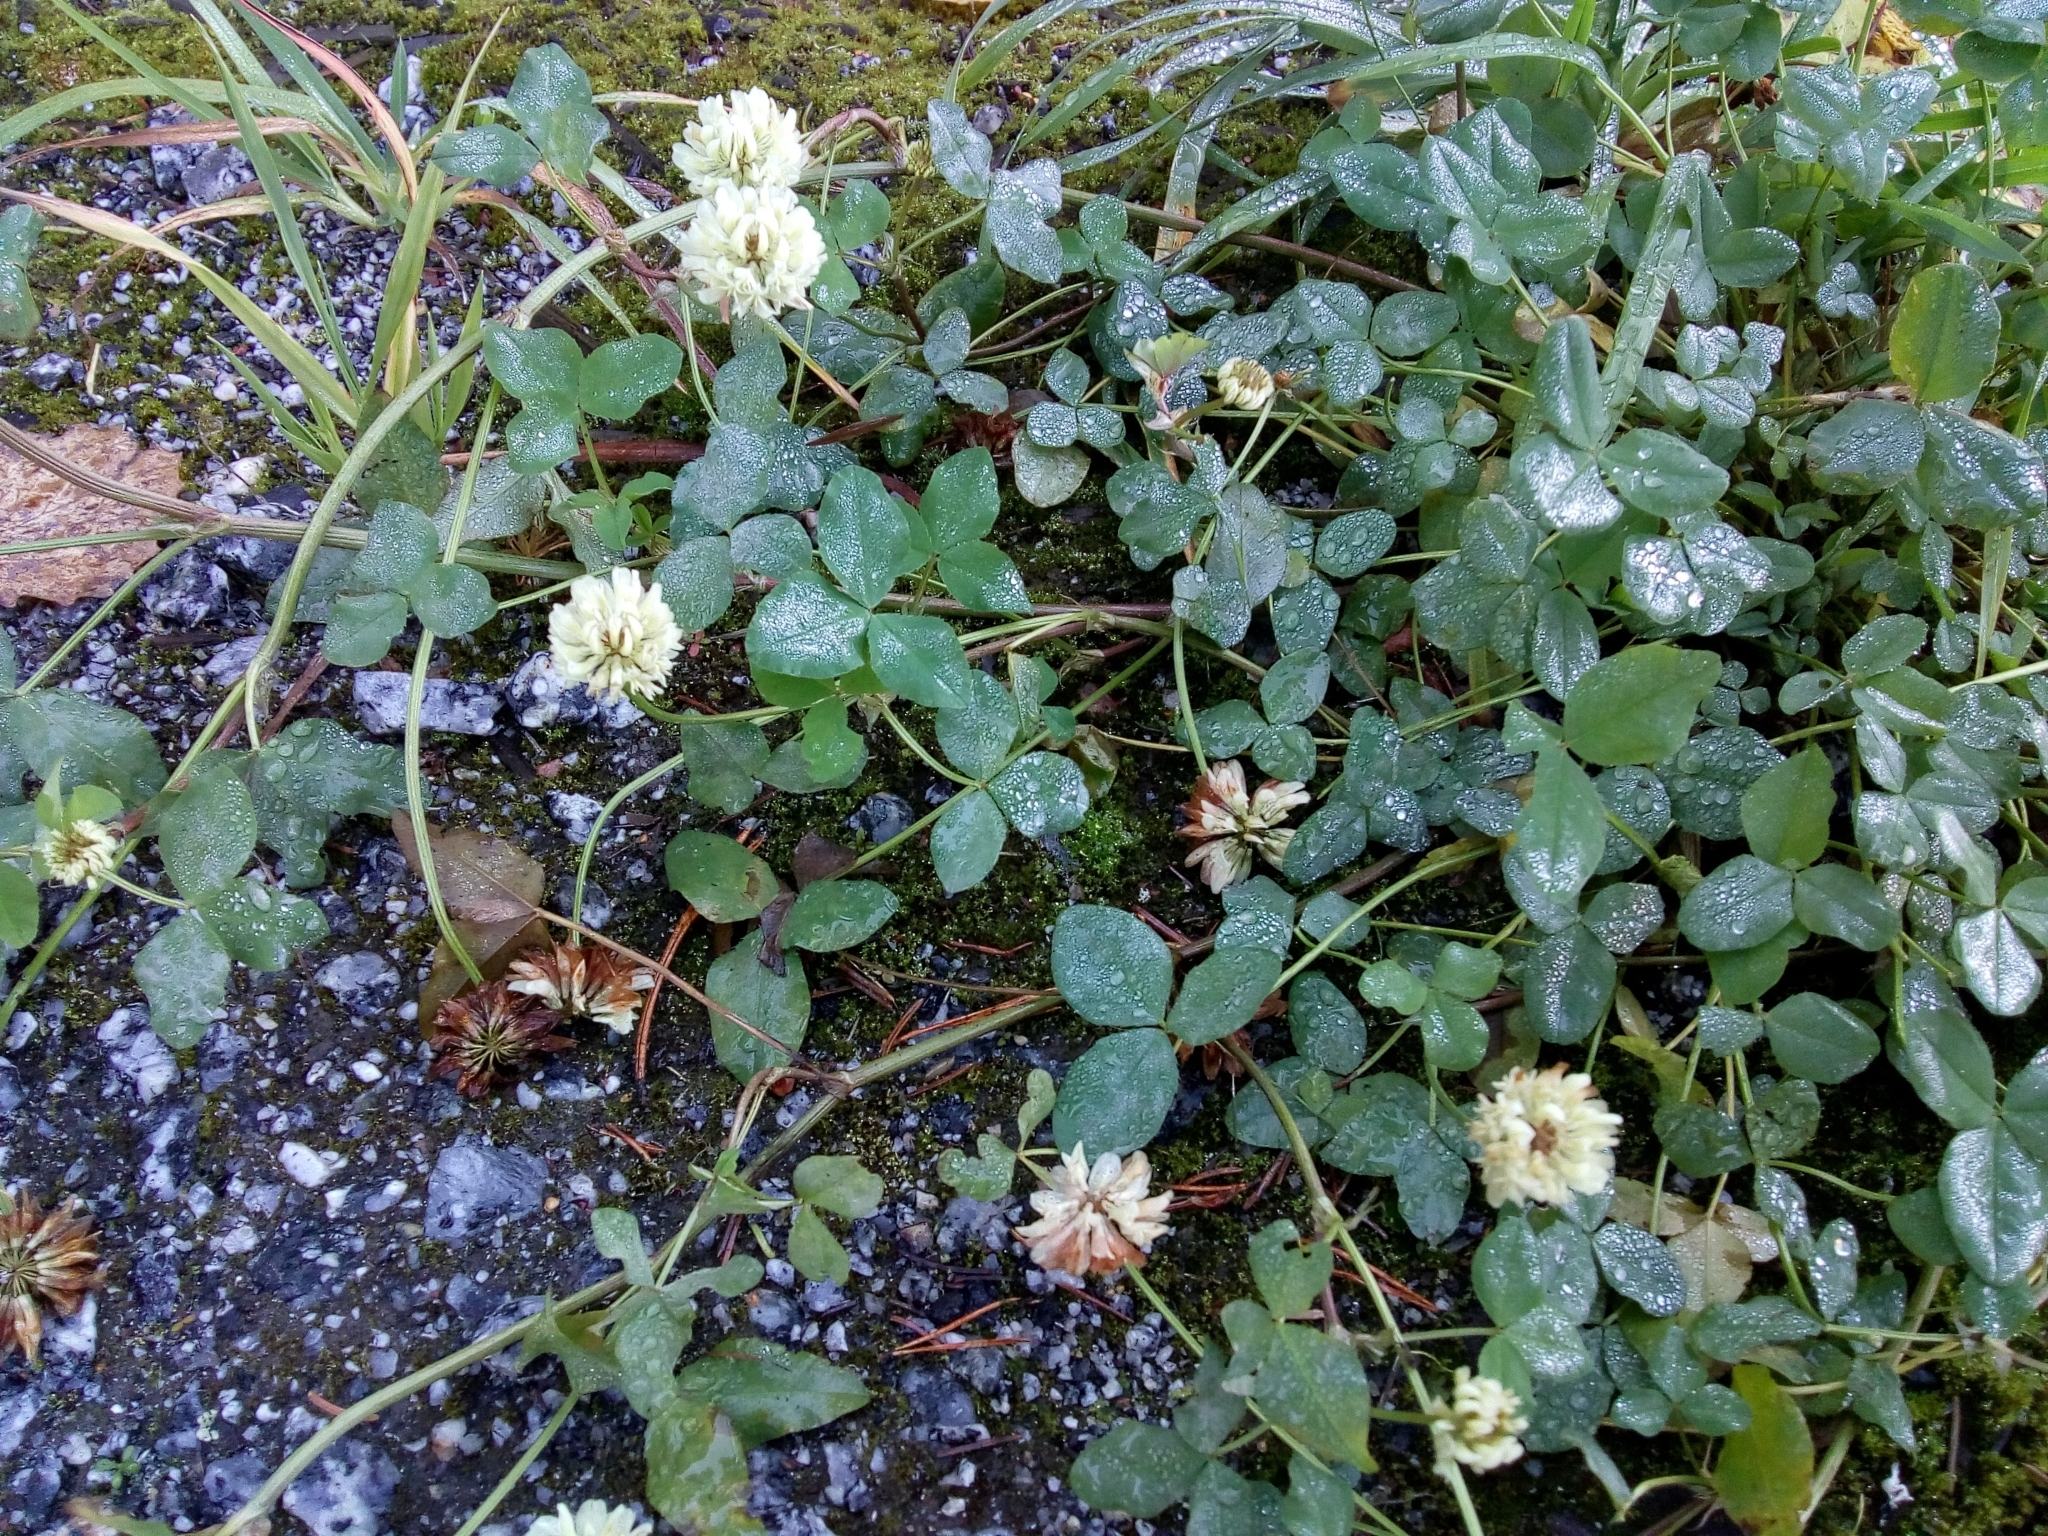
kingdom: Plantae
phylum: Tracheophyta
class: Magnoliopsida
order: Fabales
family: Fabaceae
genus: Trifolium
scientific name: Trifolium repens
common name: White clover
